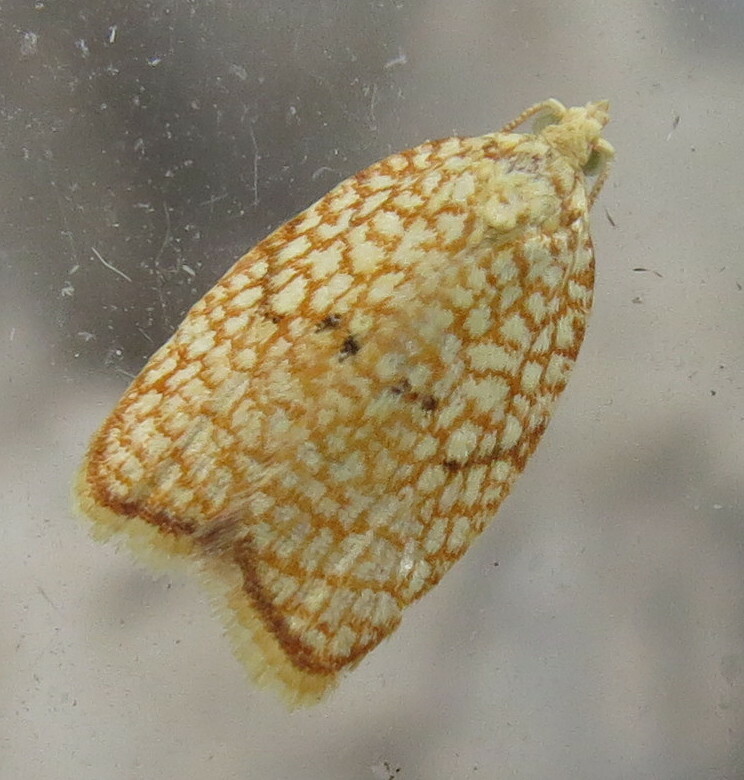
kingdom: Animalia
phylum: Arthropoda
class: Insecta
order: Lepidoptera
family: Tortricidae
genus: Acleris
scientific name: Acleris forsskaleana
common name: Maple button
